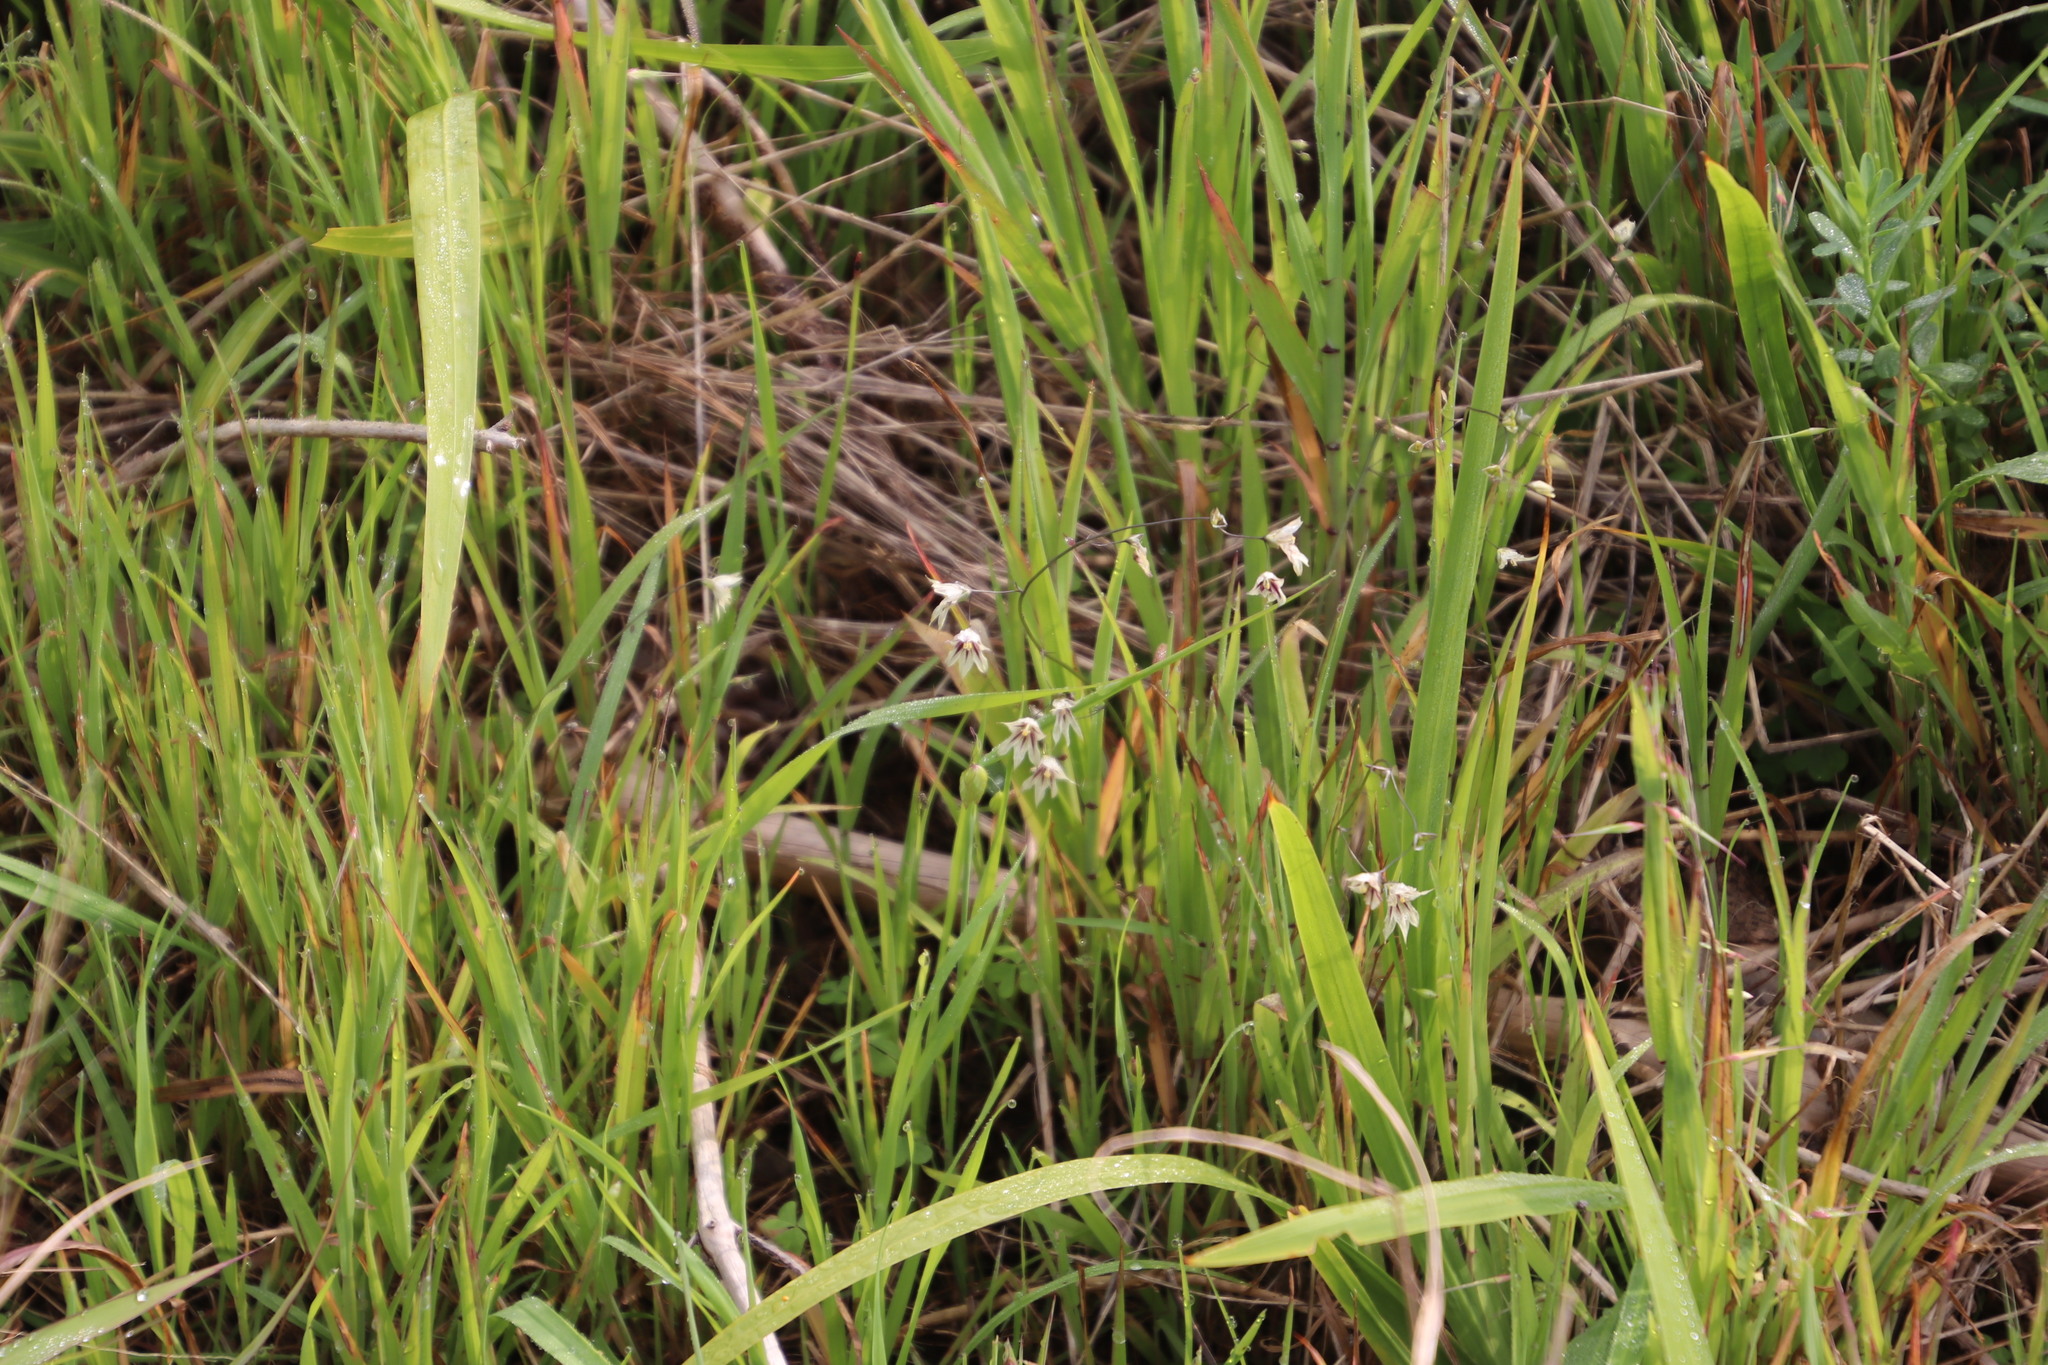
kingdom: Plantae
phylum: Tracheophyta
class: Liliopsida
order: Asparagales
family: Iridaceae
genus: Melasphaerula
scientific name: Melasphaerula graminea
